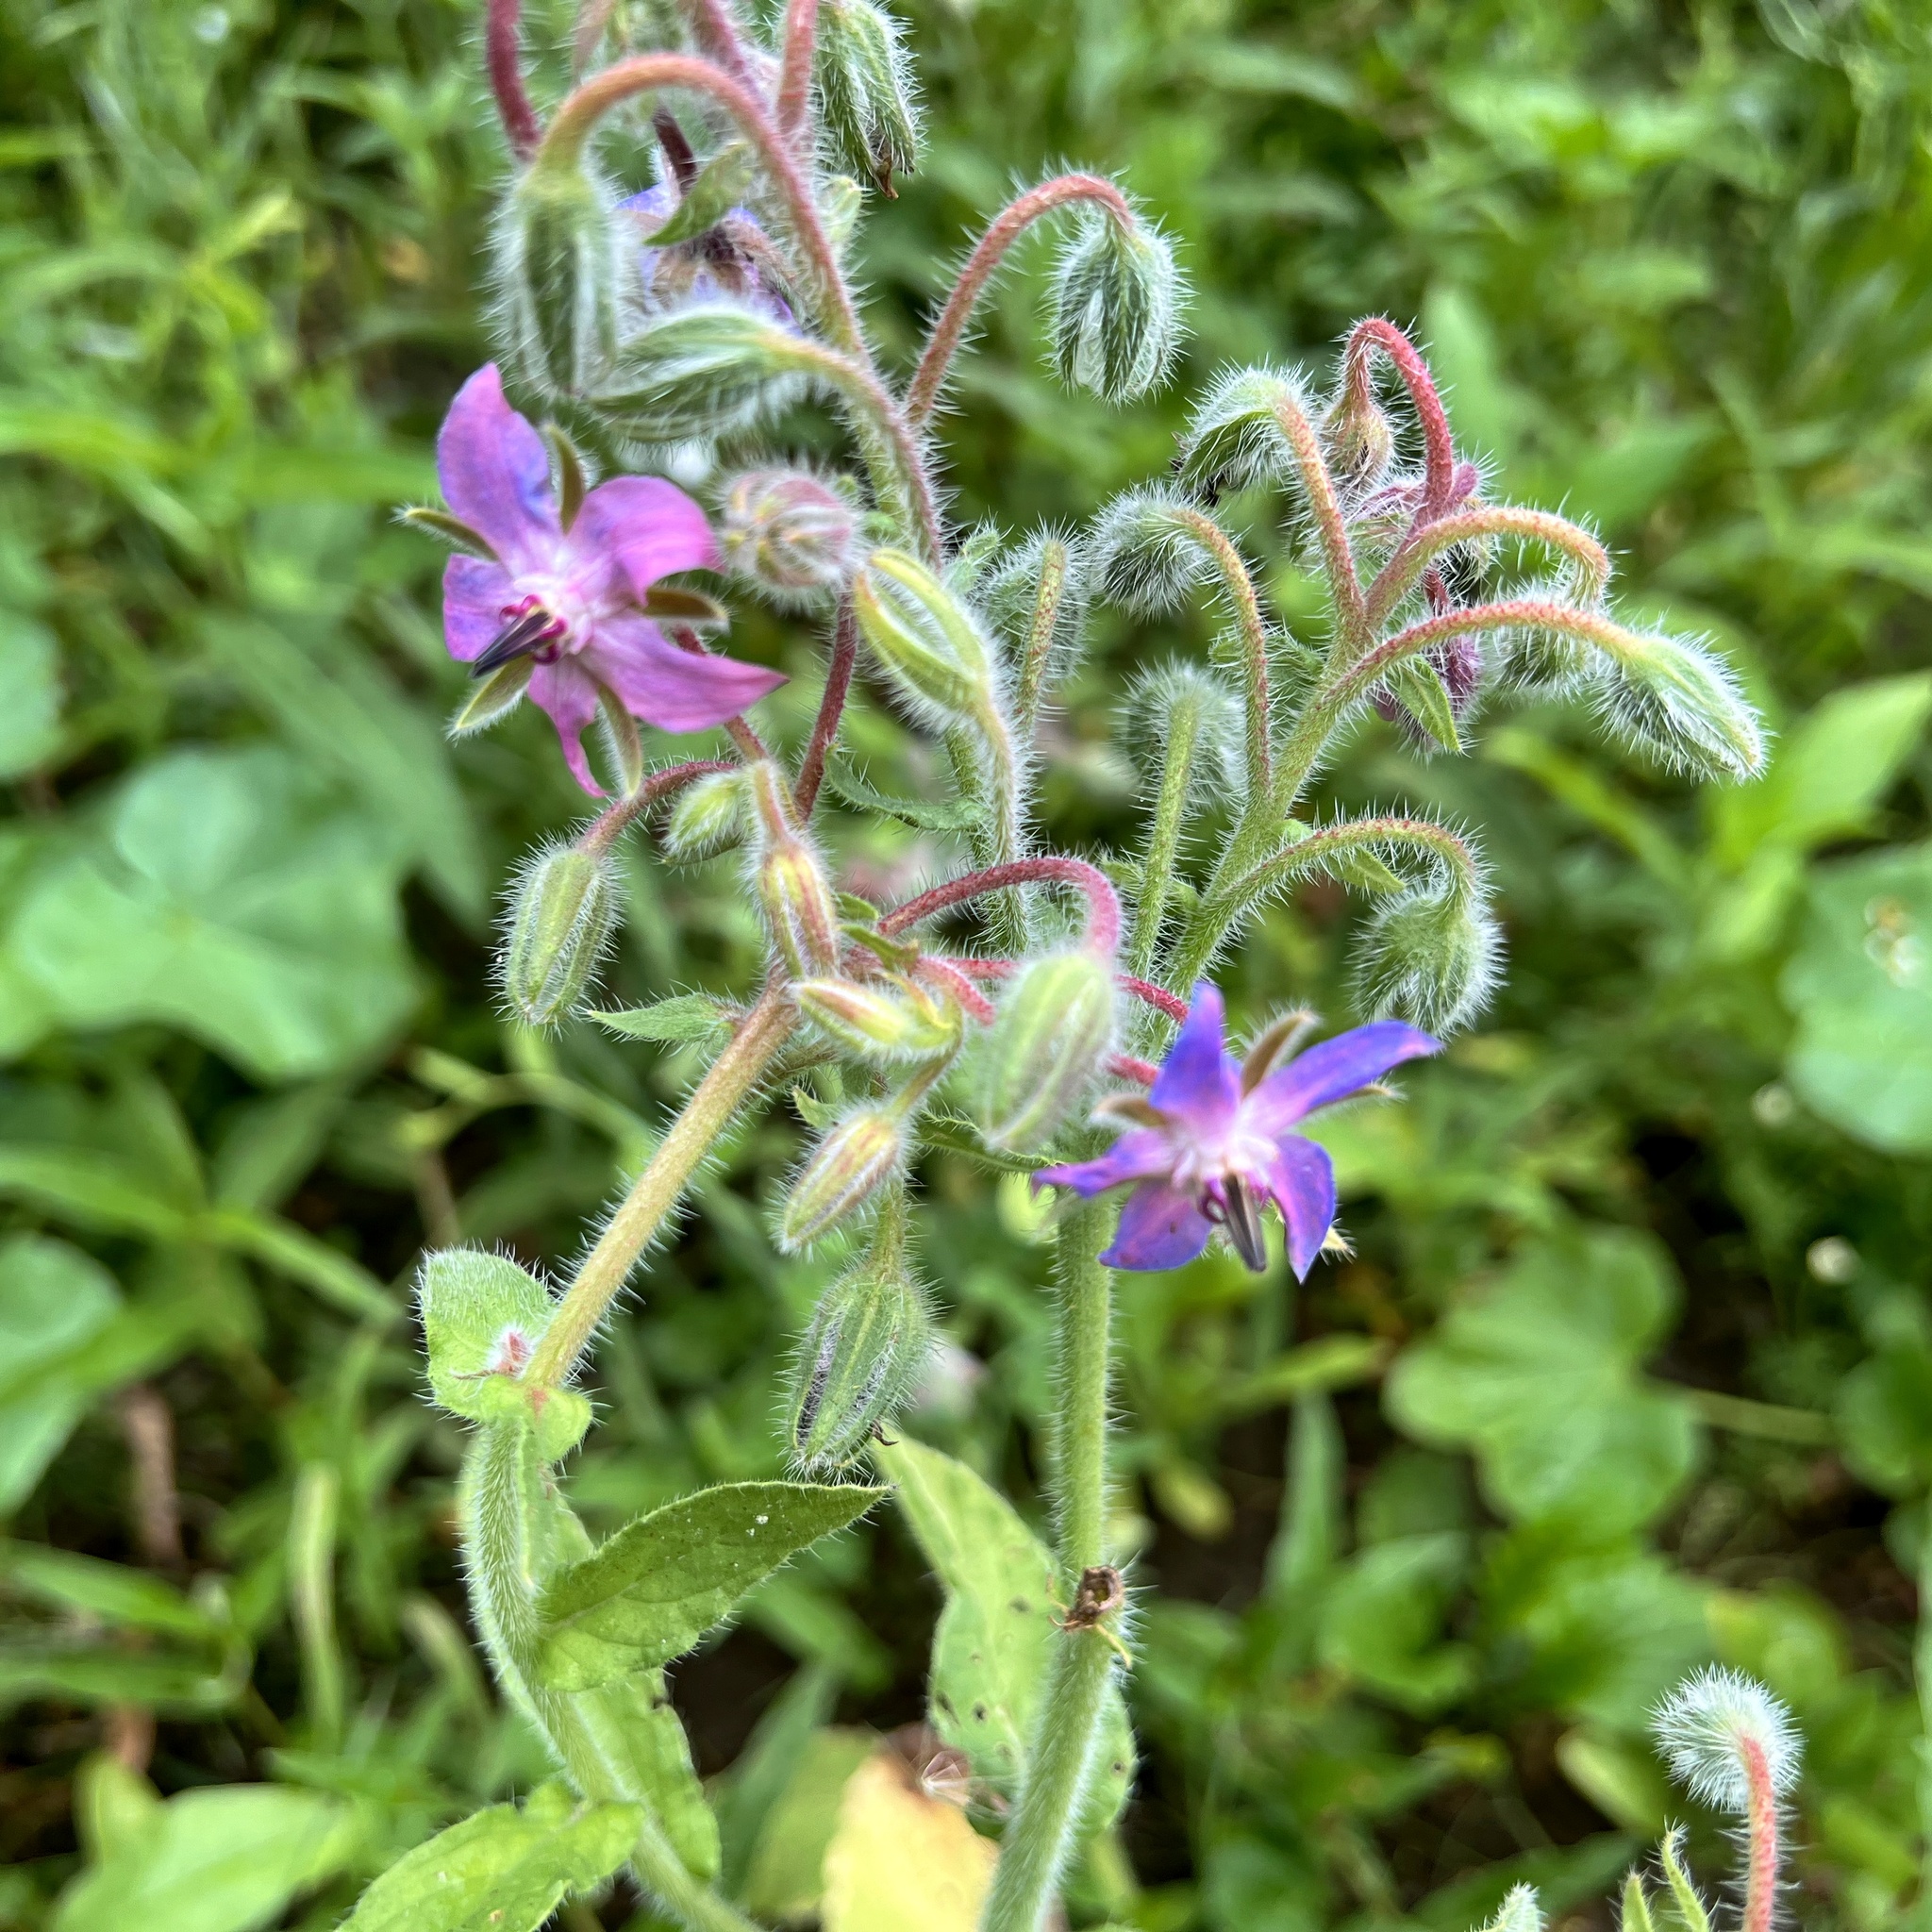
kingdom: Plantae
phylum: Tracheophyta
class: Magnoliopsida
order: Boraginales
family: Boraginaceae
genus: Borago
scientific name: Borago officinalis
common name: Borage
